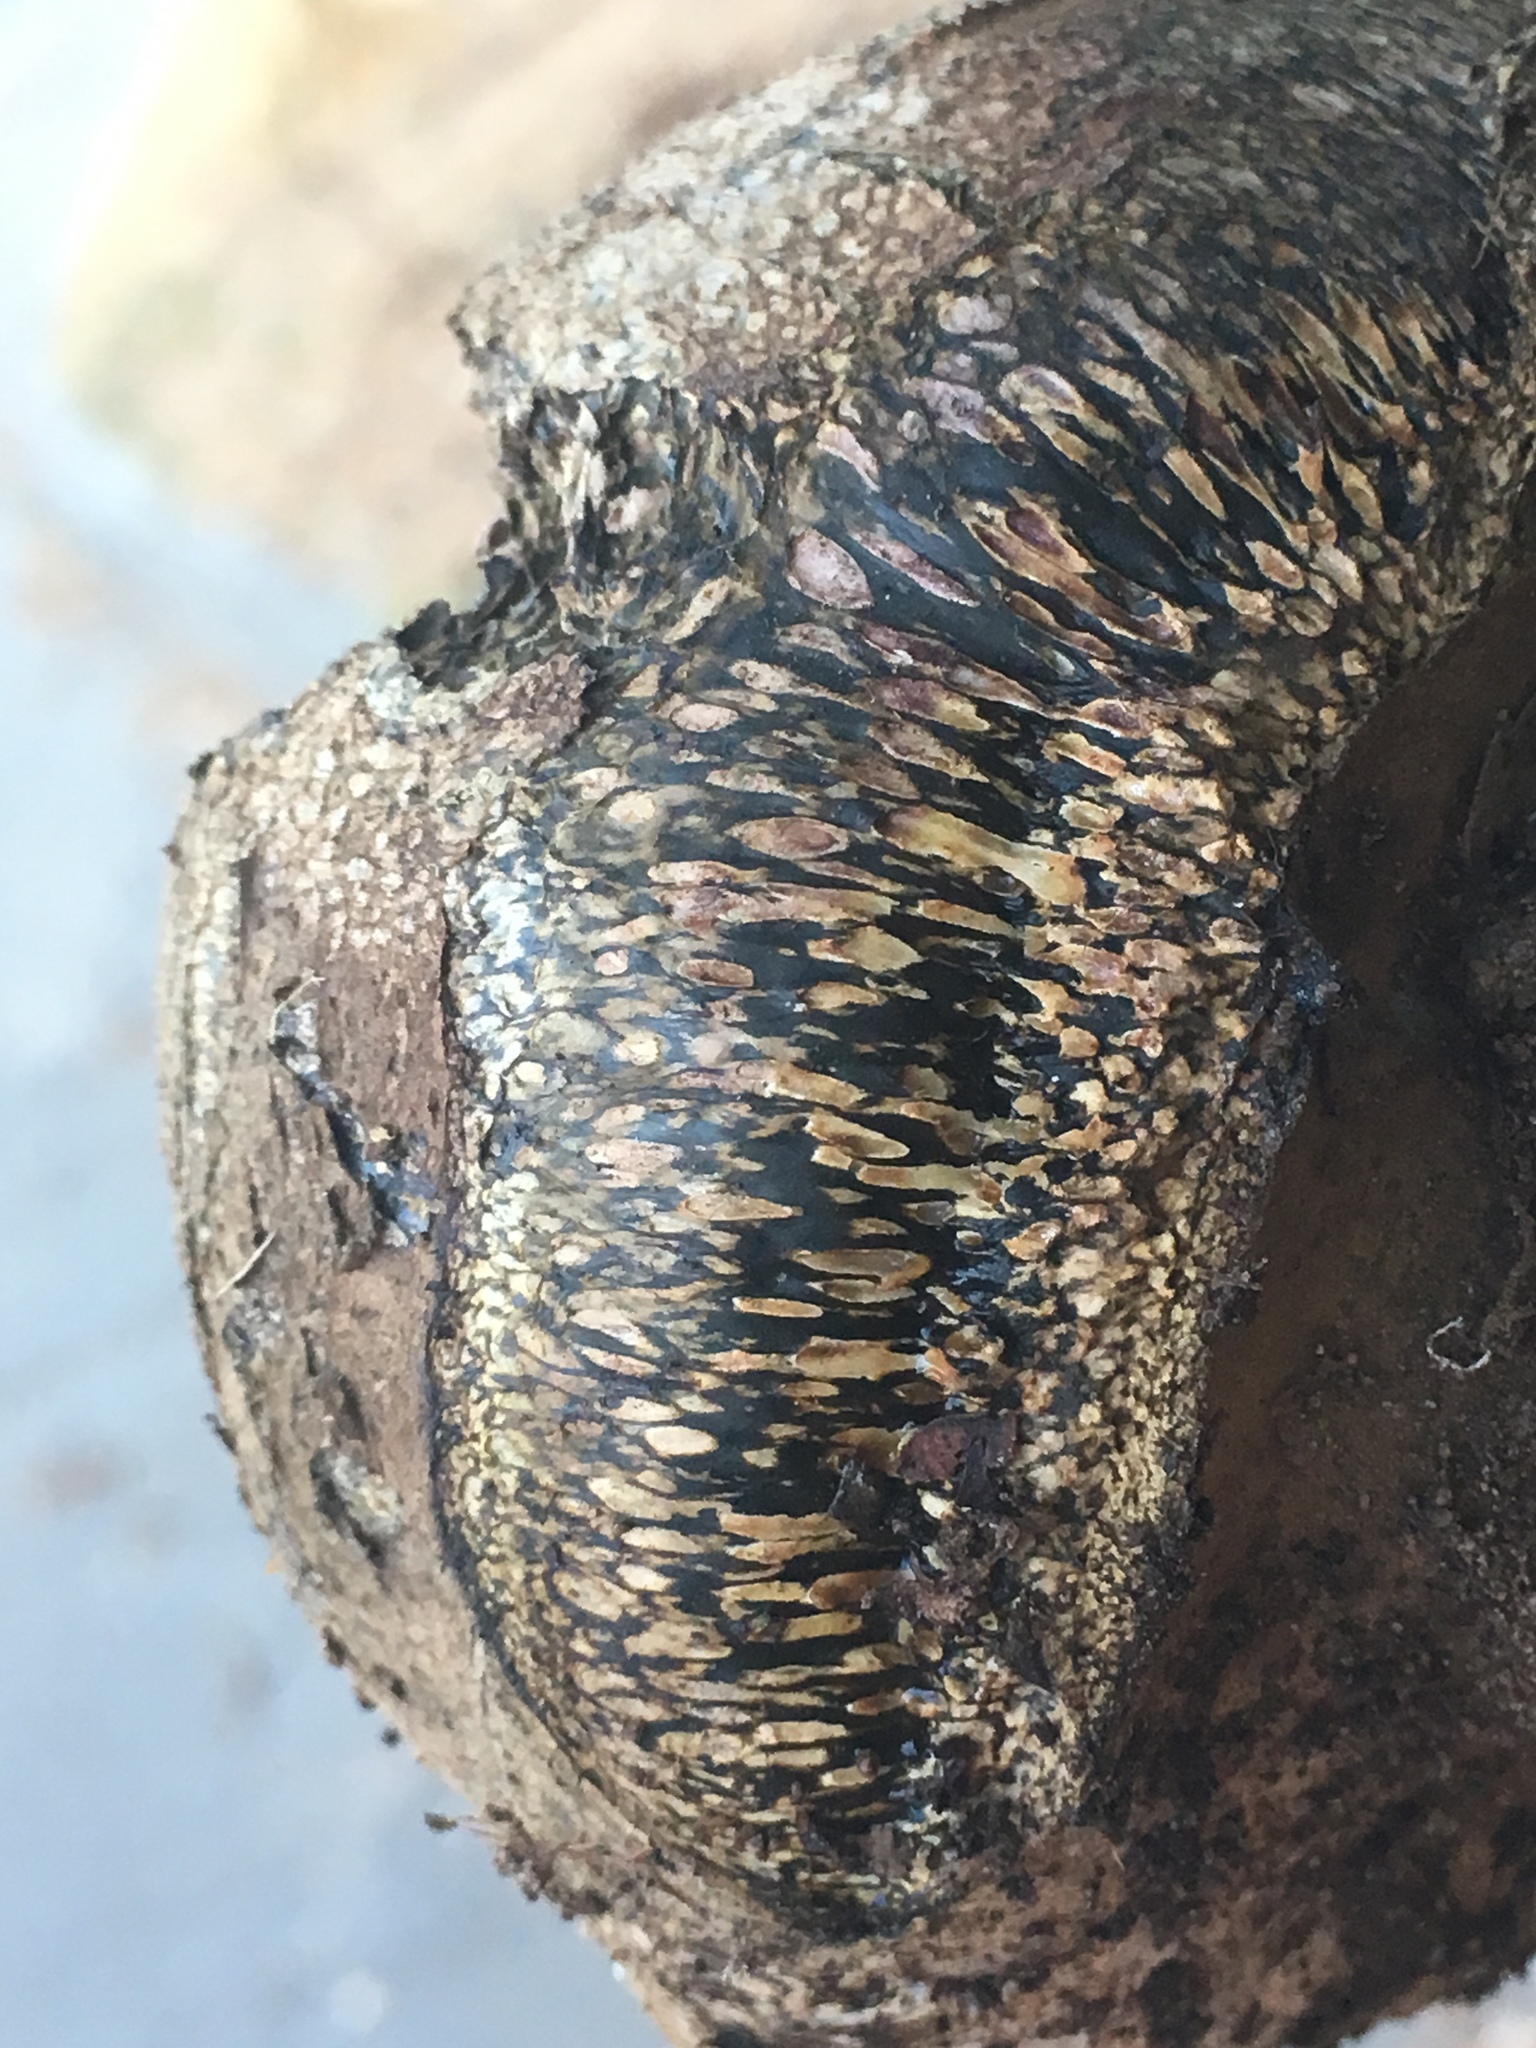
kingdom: Fungi
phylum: Basidiomycota
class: Agaricomycetes
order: Boletales
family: Sclerodermataceae
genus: Pisolithus
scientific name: Pisolithus arhizus
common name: Dyeball
